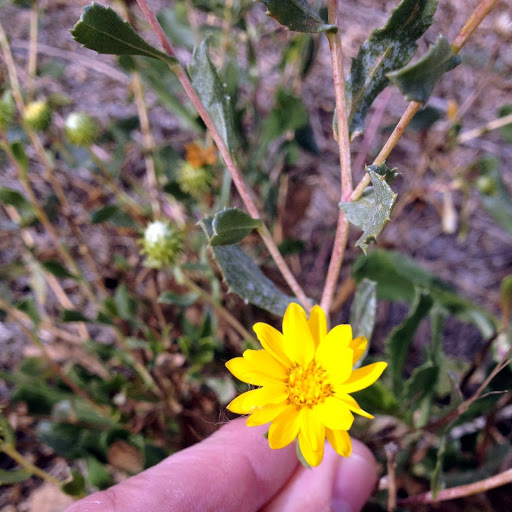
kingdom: Plantae
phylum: Tracheophyta
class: Magnoliopsida
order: Asterales
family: Asteraceae
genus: Grindelia
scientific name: Grindelia hirsutula
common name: Hairy gumweed
